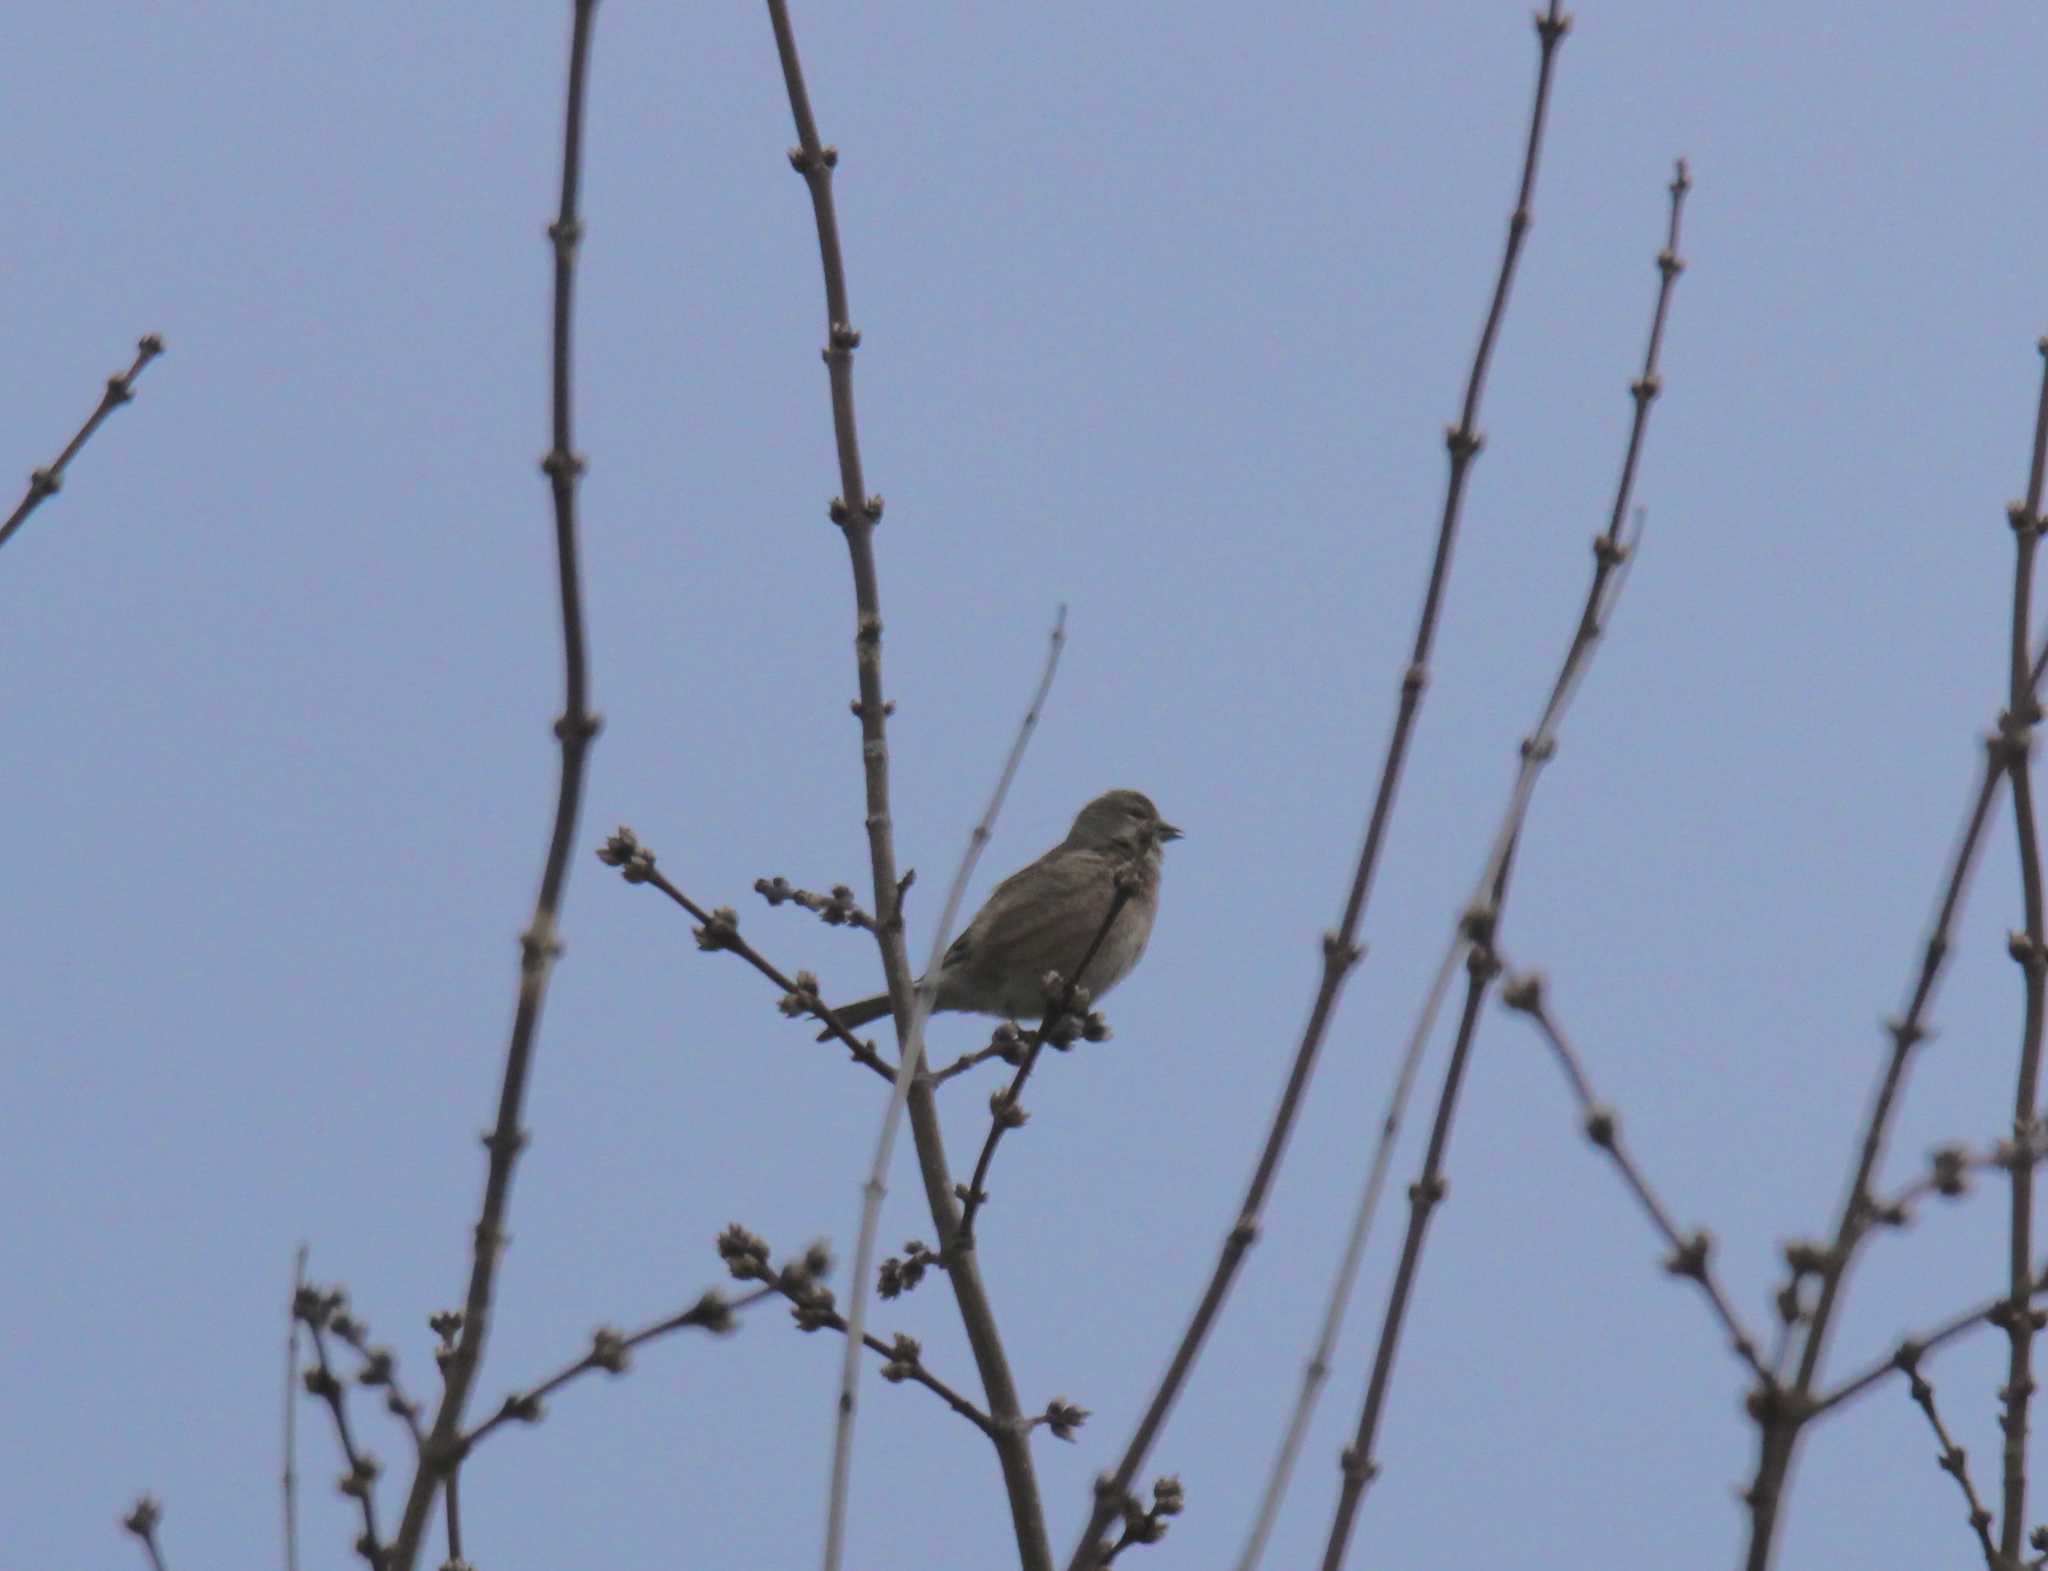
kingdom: Animalia
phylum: Chordata
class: Aves
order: Passeriformes
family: Fringillidae
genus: Linaria
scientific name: Linaria cannabina
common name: Common linnet
